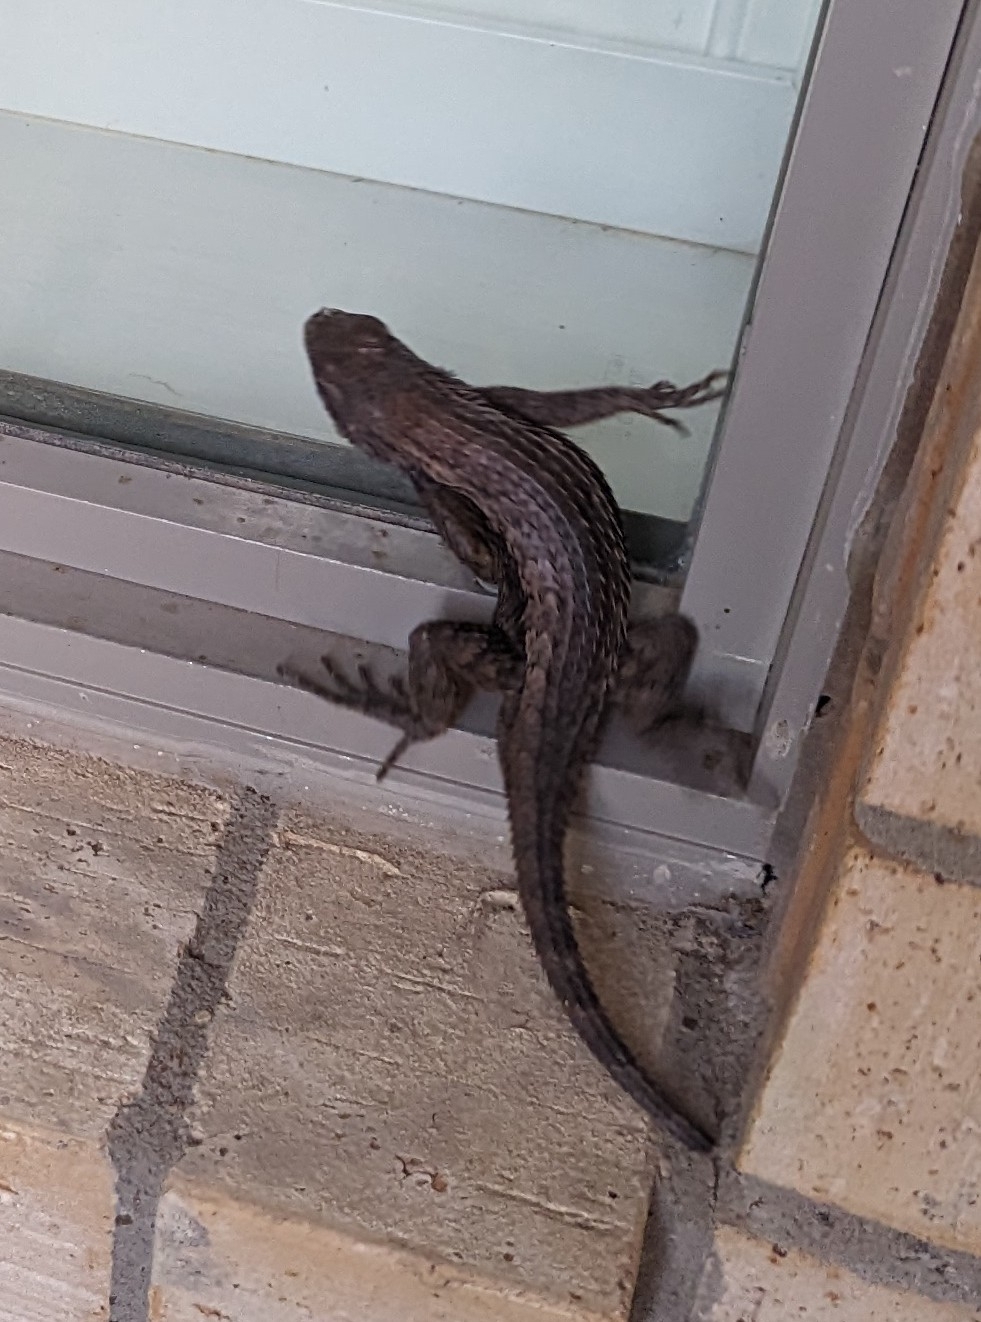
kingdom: Animalia
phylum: Chordata
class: Squamata
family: Phrynosomatidae
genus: Sceloporus
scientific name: Sceloporus olivaceus
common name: Texas spiny lizard
